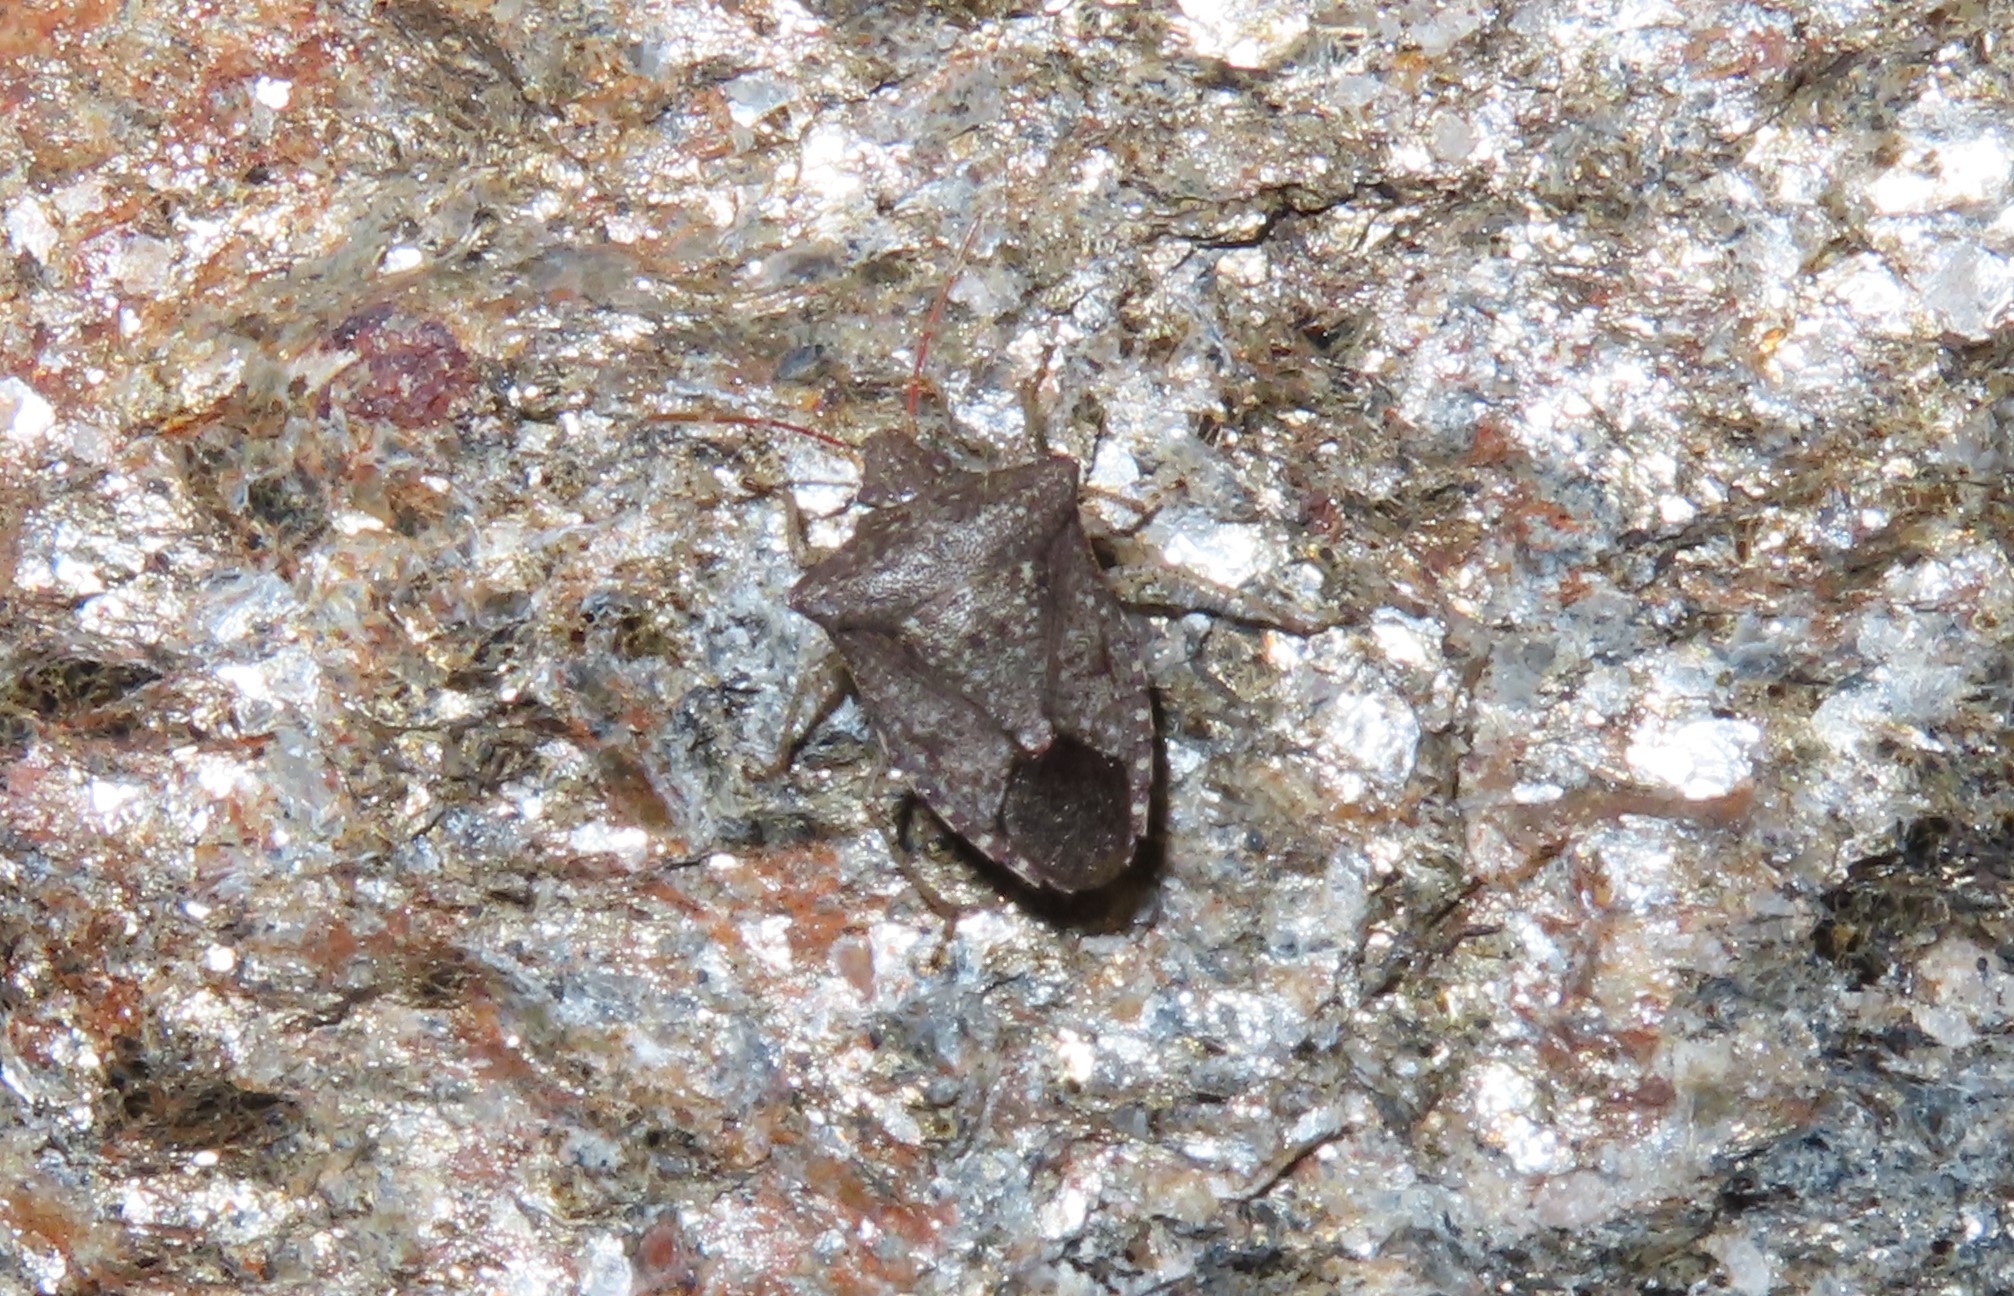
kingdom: Animalia
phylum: Arthropoda
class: Insecta
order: Hemiptera
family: Pentatomidae
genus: Euschistus
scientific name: Euschistus tristigmus
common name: Dusky stink bug
